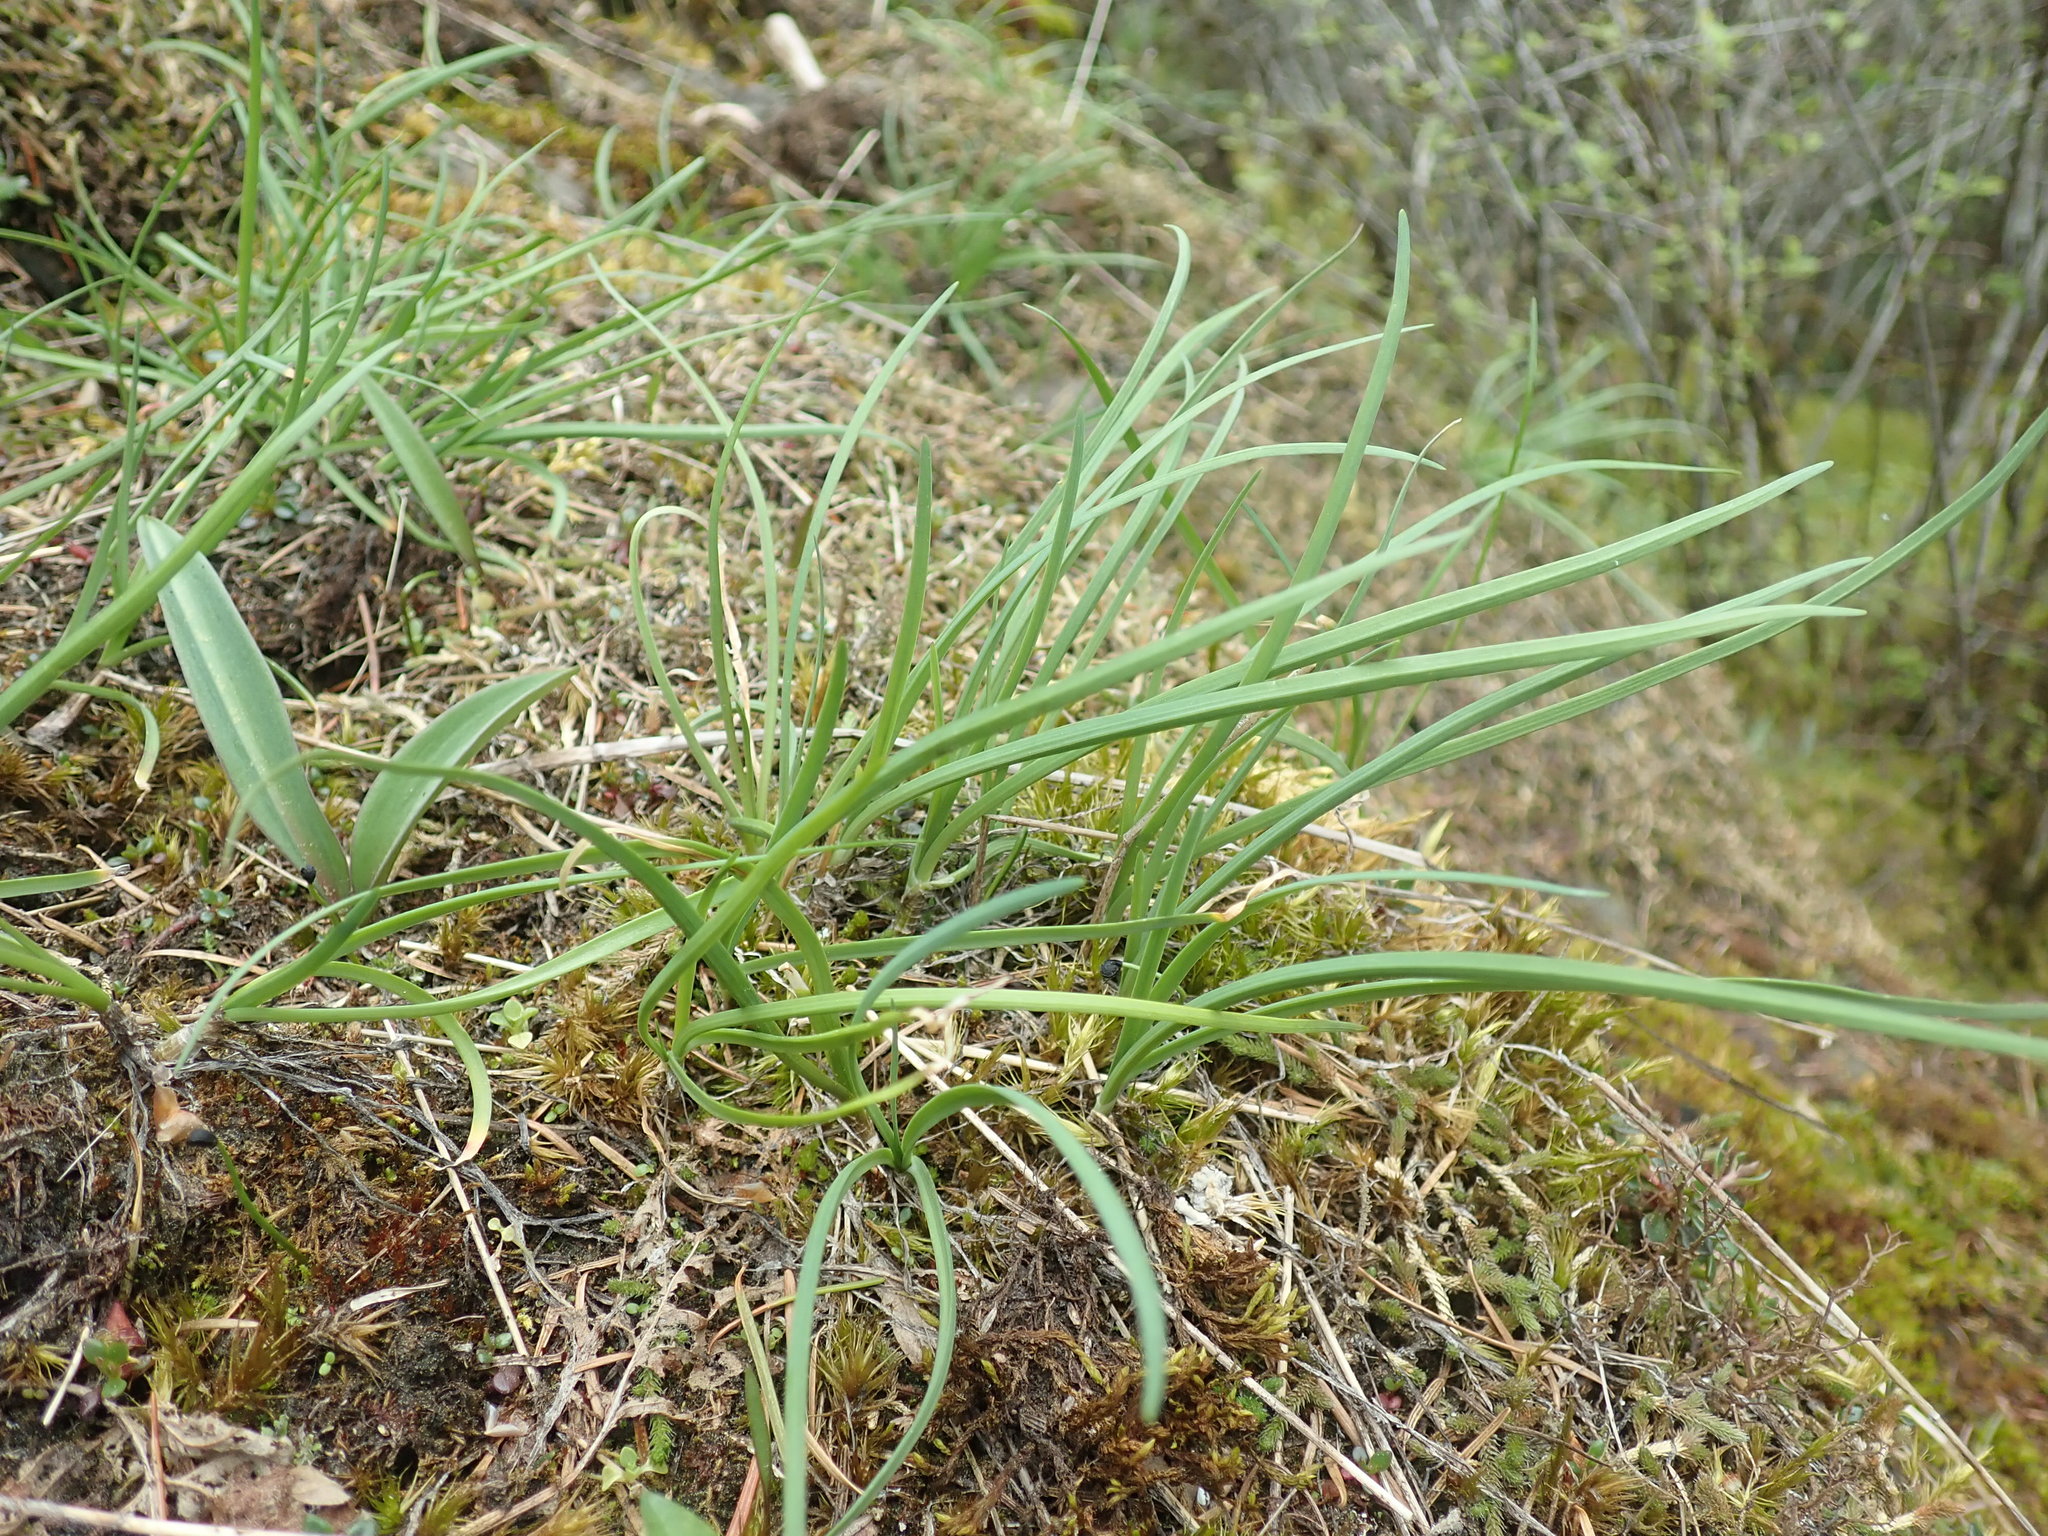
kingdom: Plantae
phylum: Tracheophyta
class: Liliopsida
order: Asparagales
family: Amaryllidaceae
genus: Allium
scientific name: Allium cernuum
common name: Nodding onion
